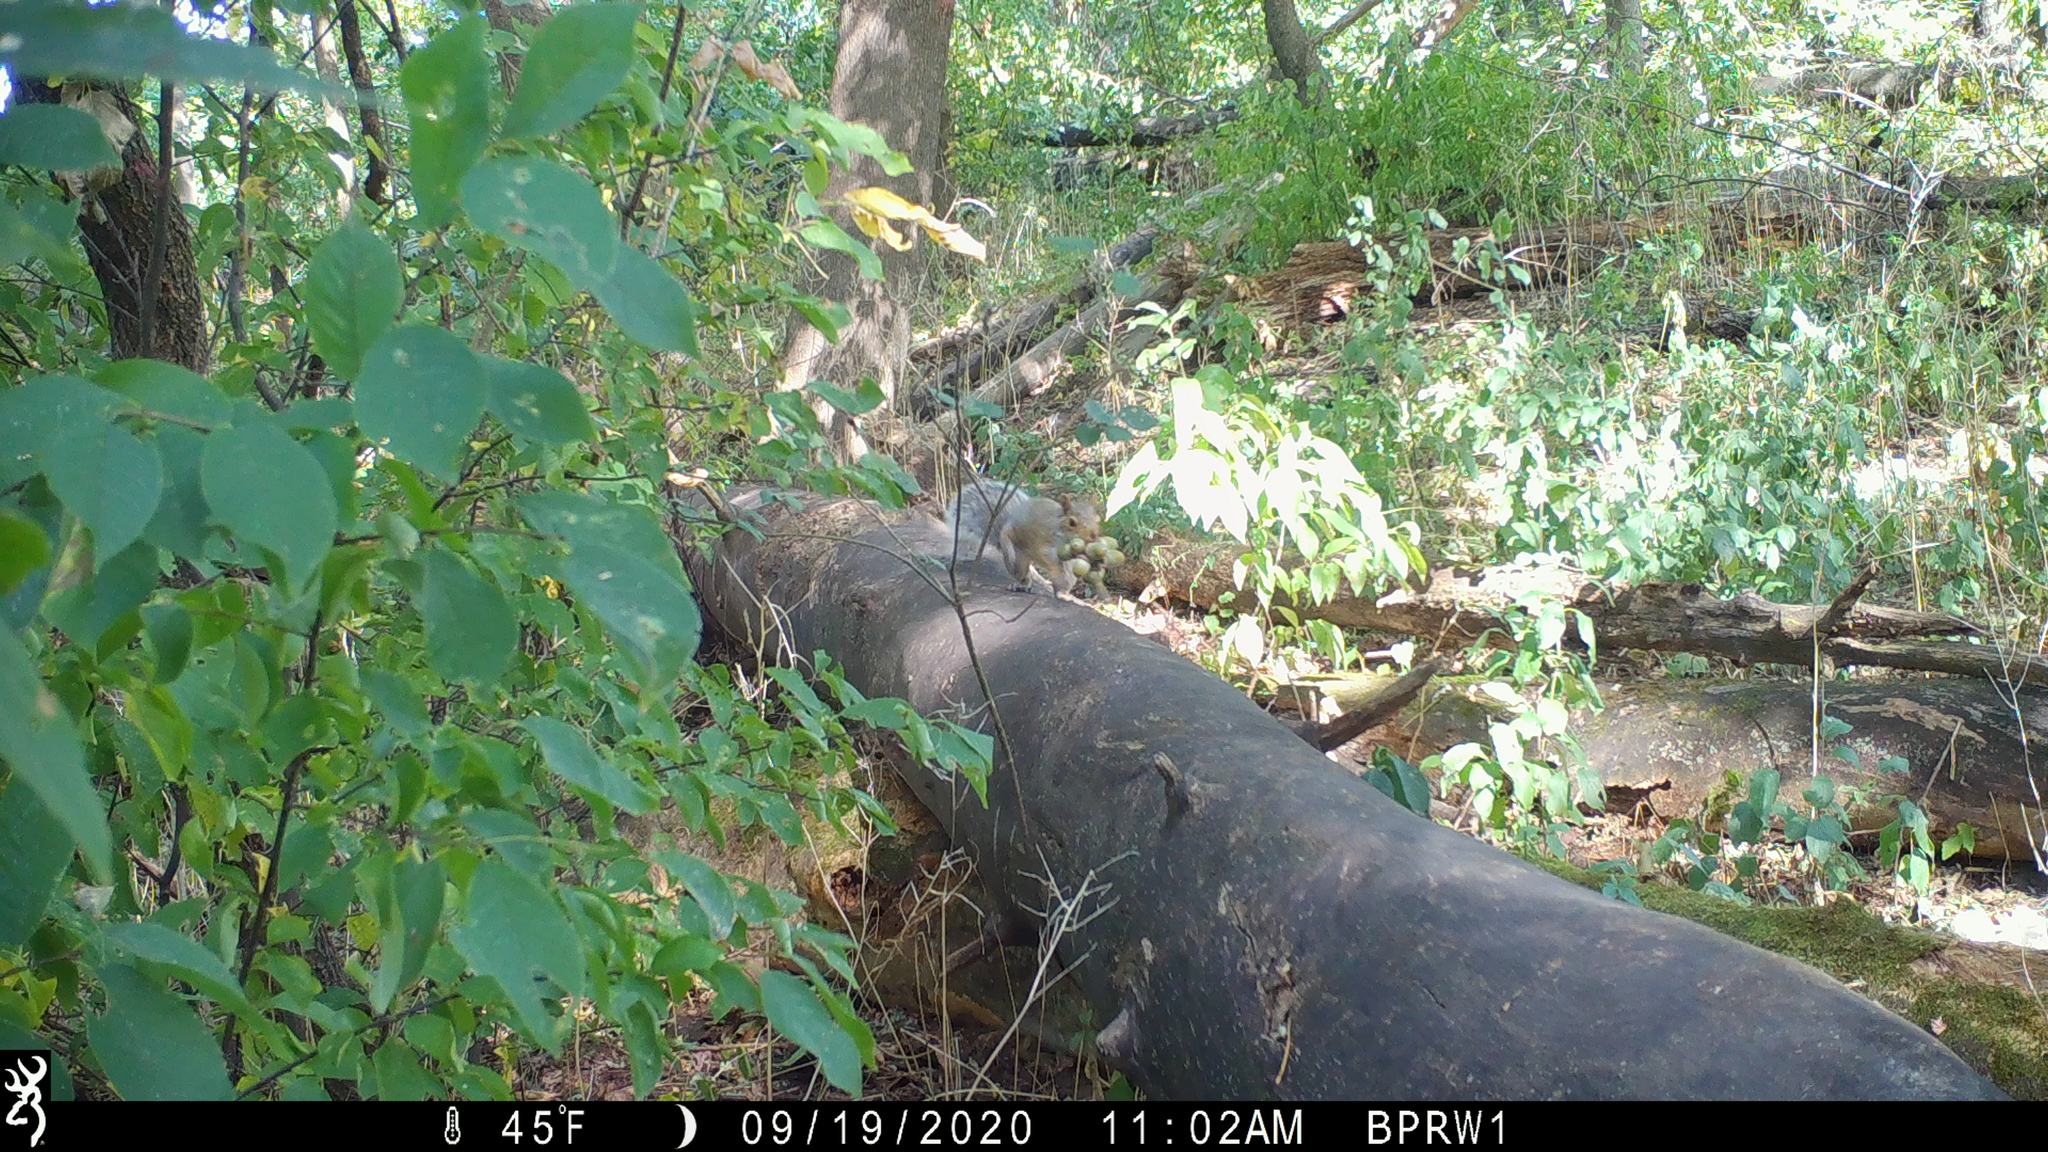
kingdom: Animalia
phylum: Chordata
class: Mammalia
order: Rodentia
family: Sciuridae
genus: Sciurus
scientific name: Sciurus carolinensis
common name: Eastern gray squirrel
